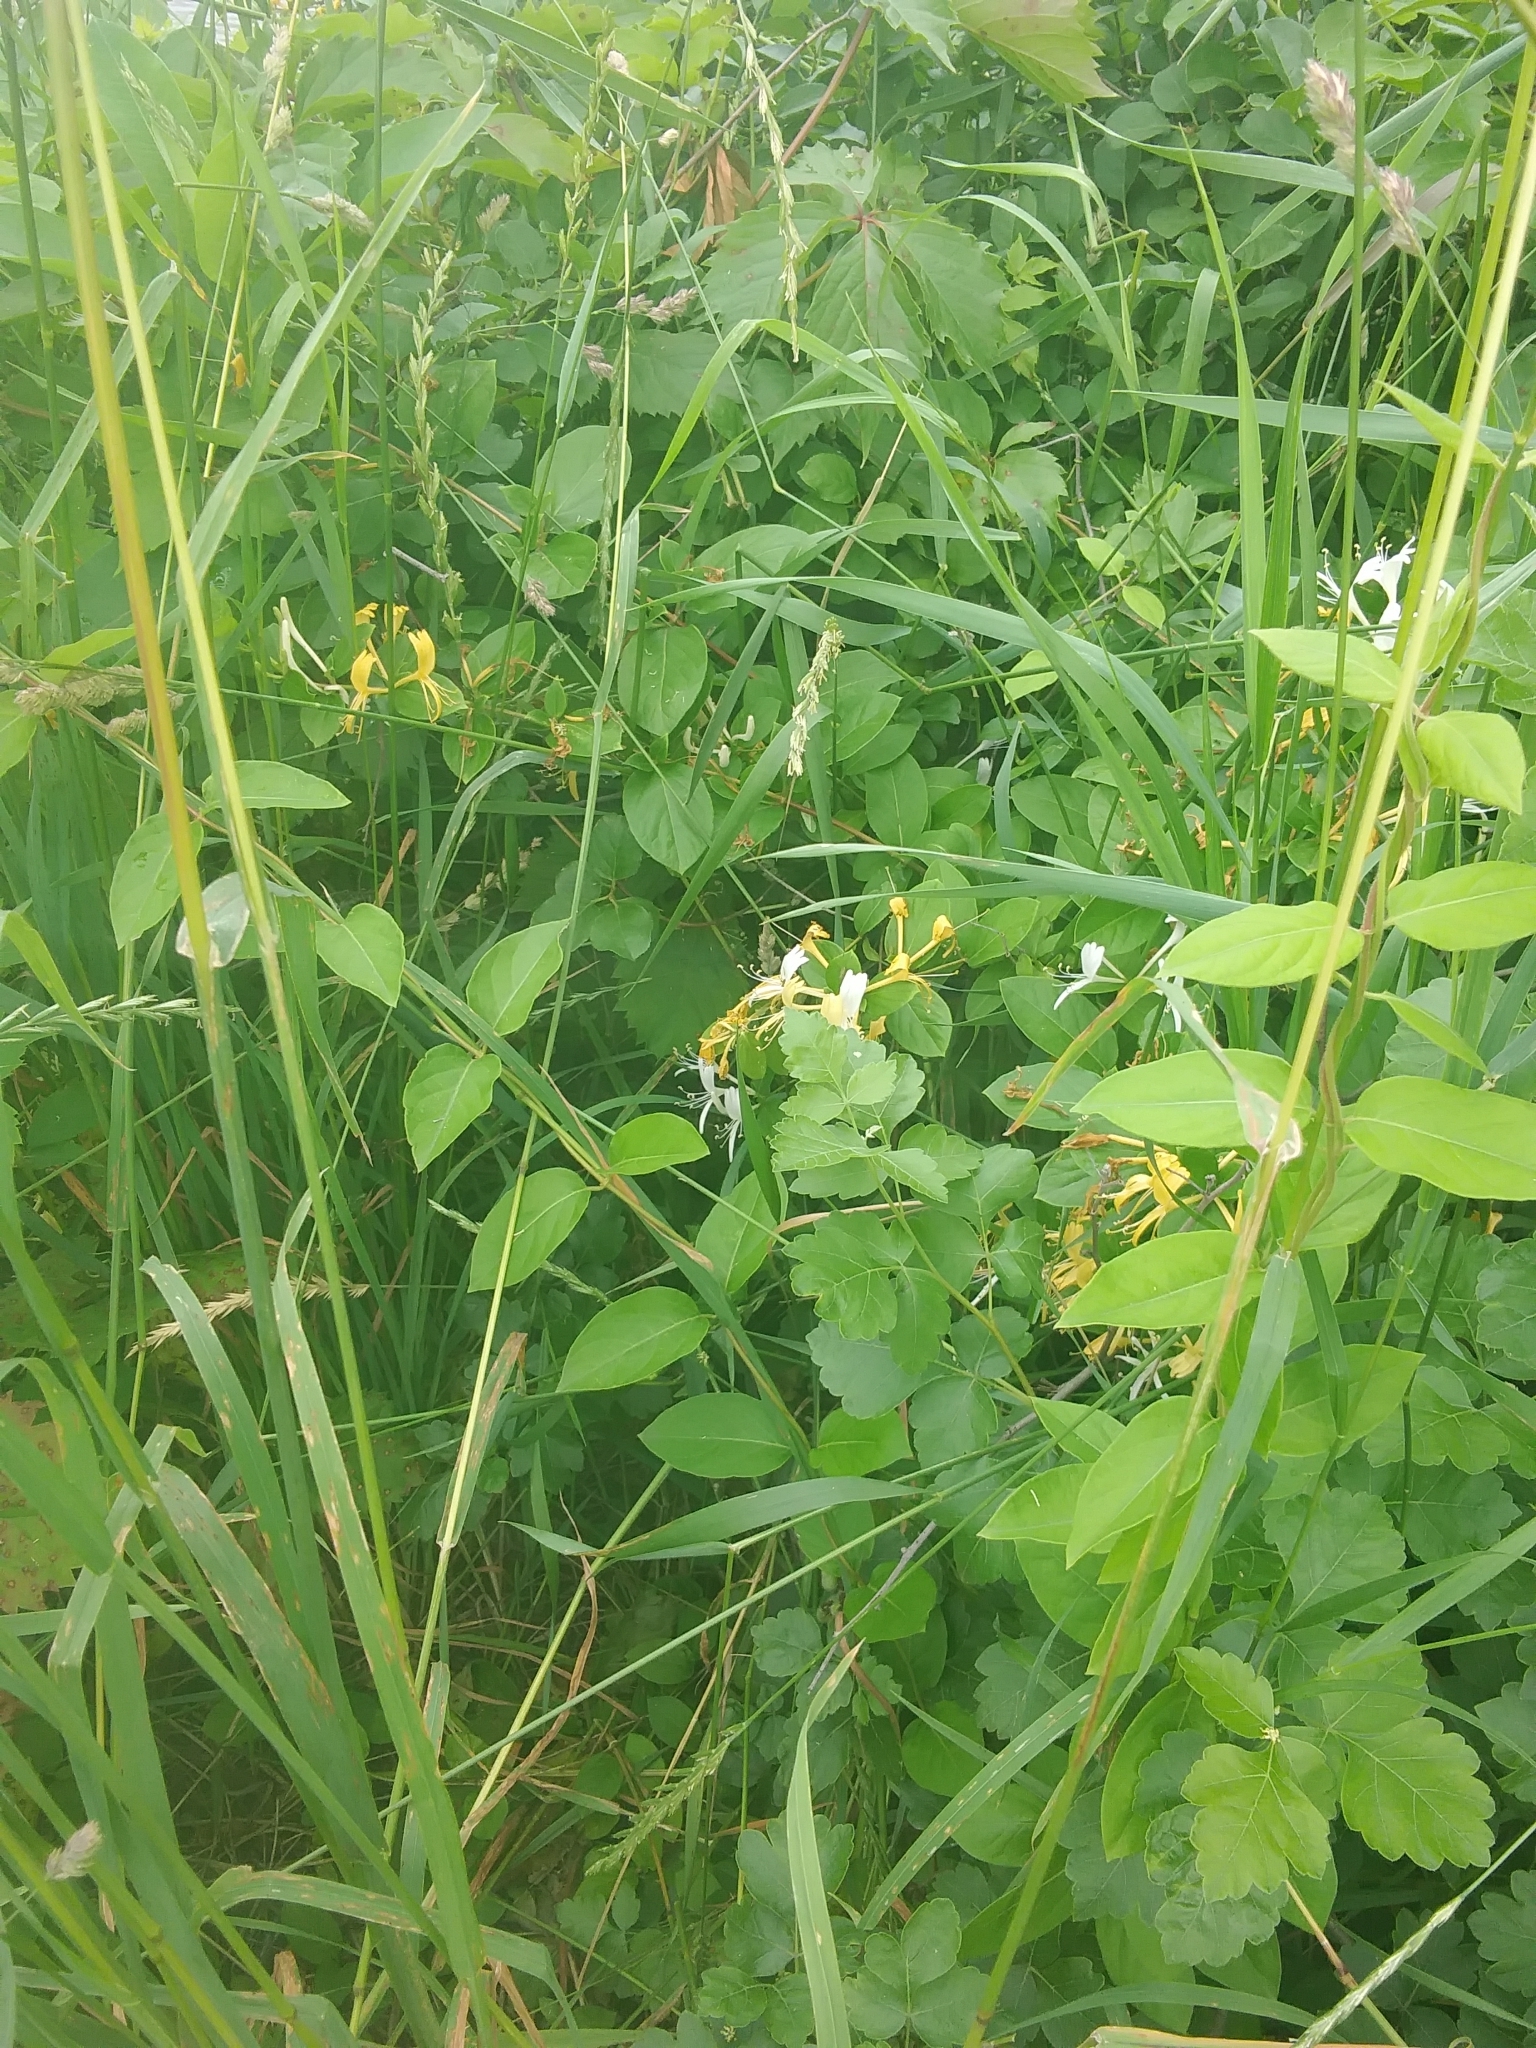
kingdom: Plantae
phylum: Tracheophyta
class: Magnoliopsida
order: Dipsacales
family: Caprifoliaceae
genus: Lonicera
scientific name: Lonicera japonica
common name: Japanese honeysuckle
